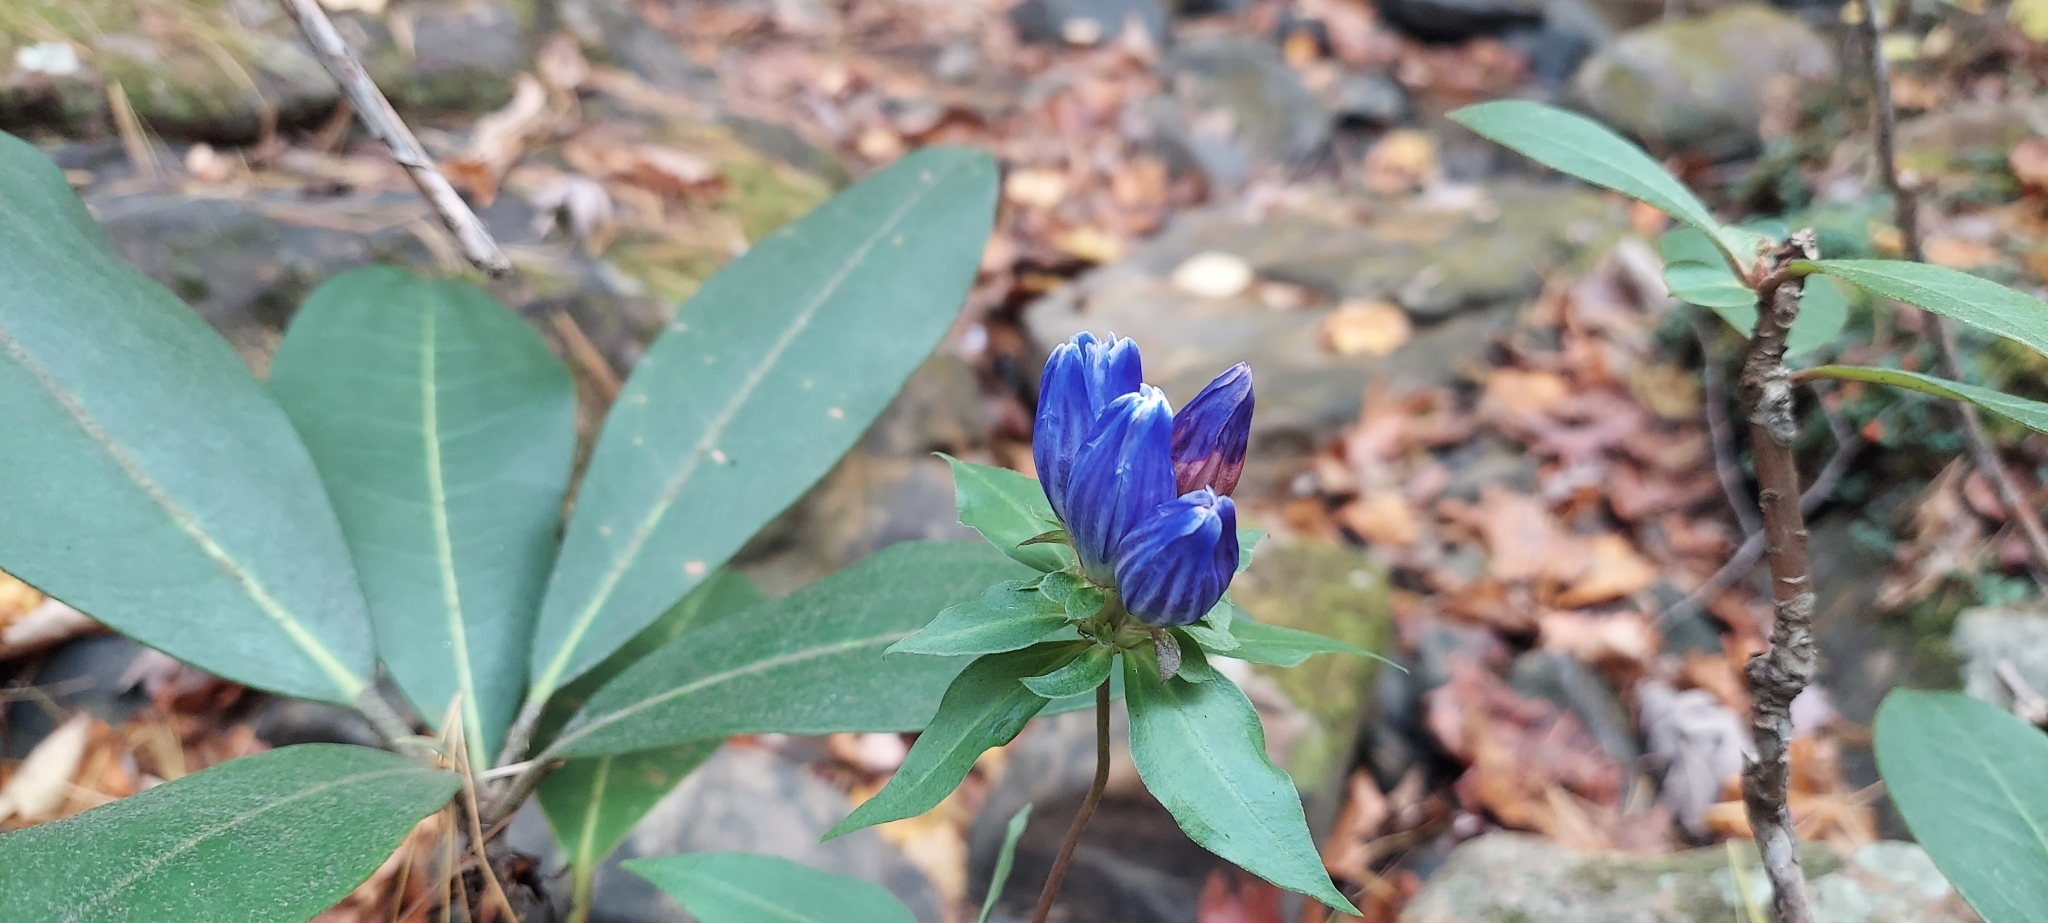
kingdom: Plantae
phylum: Tracheophyta
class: Magnoliopsida
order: Gentianales
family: Gentianaceae
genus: Gentiana
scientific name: Gentiana andrewsii
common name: Bottle gentian
